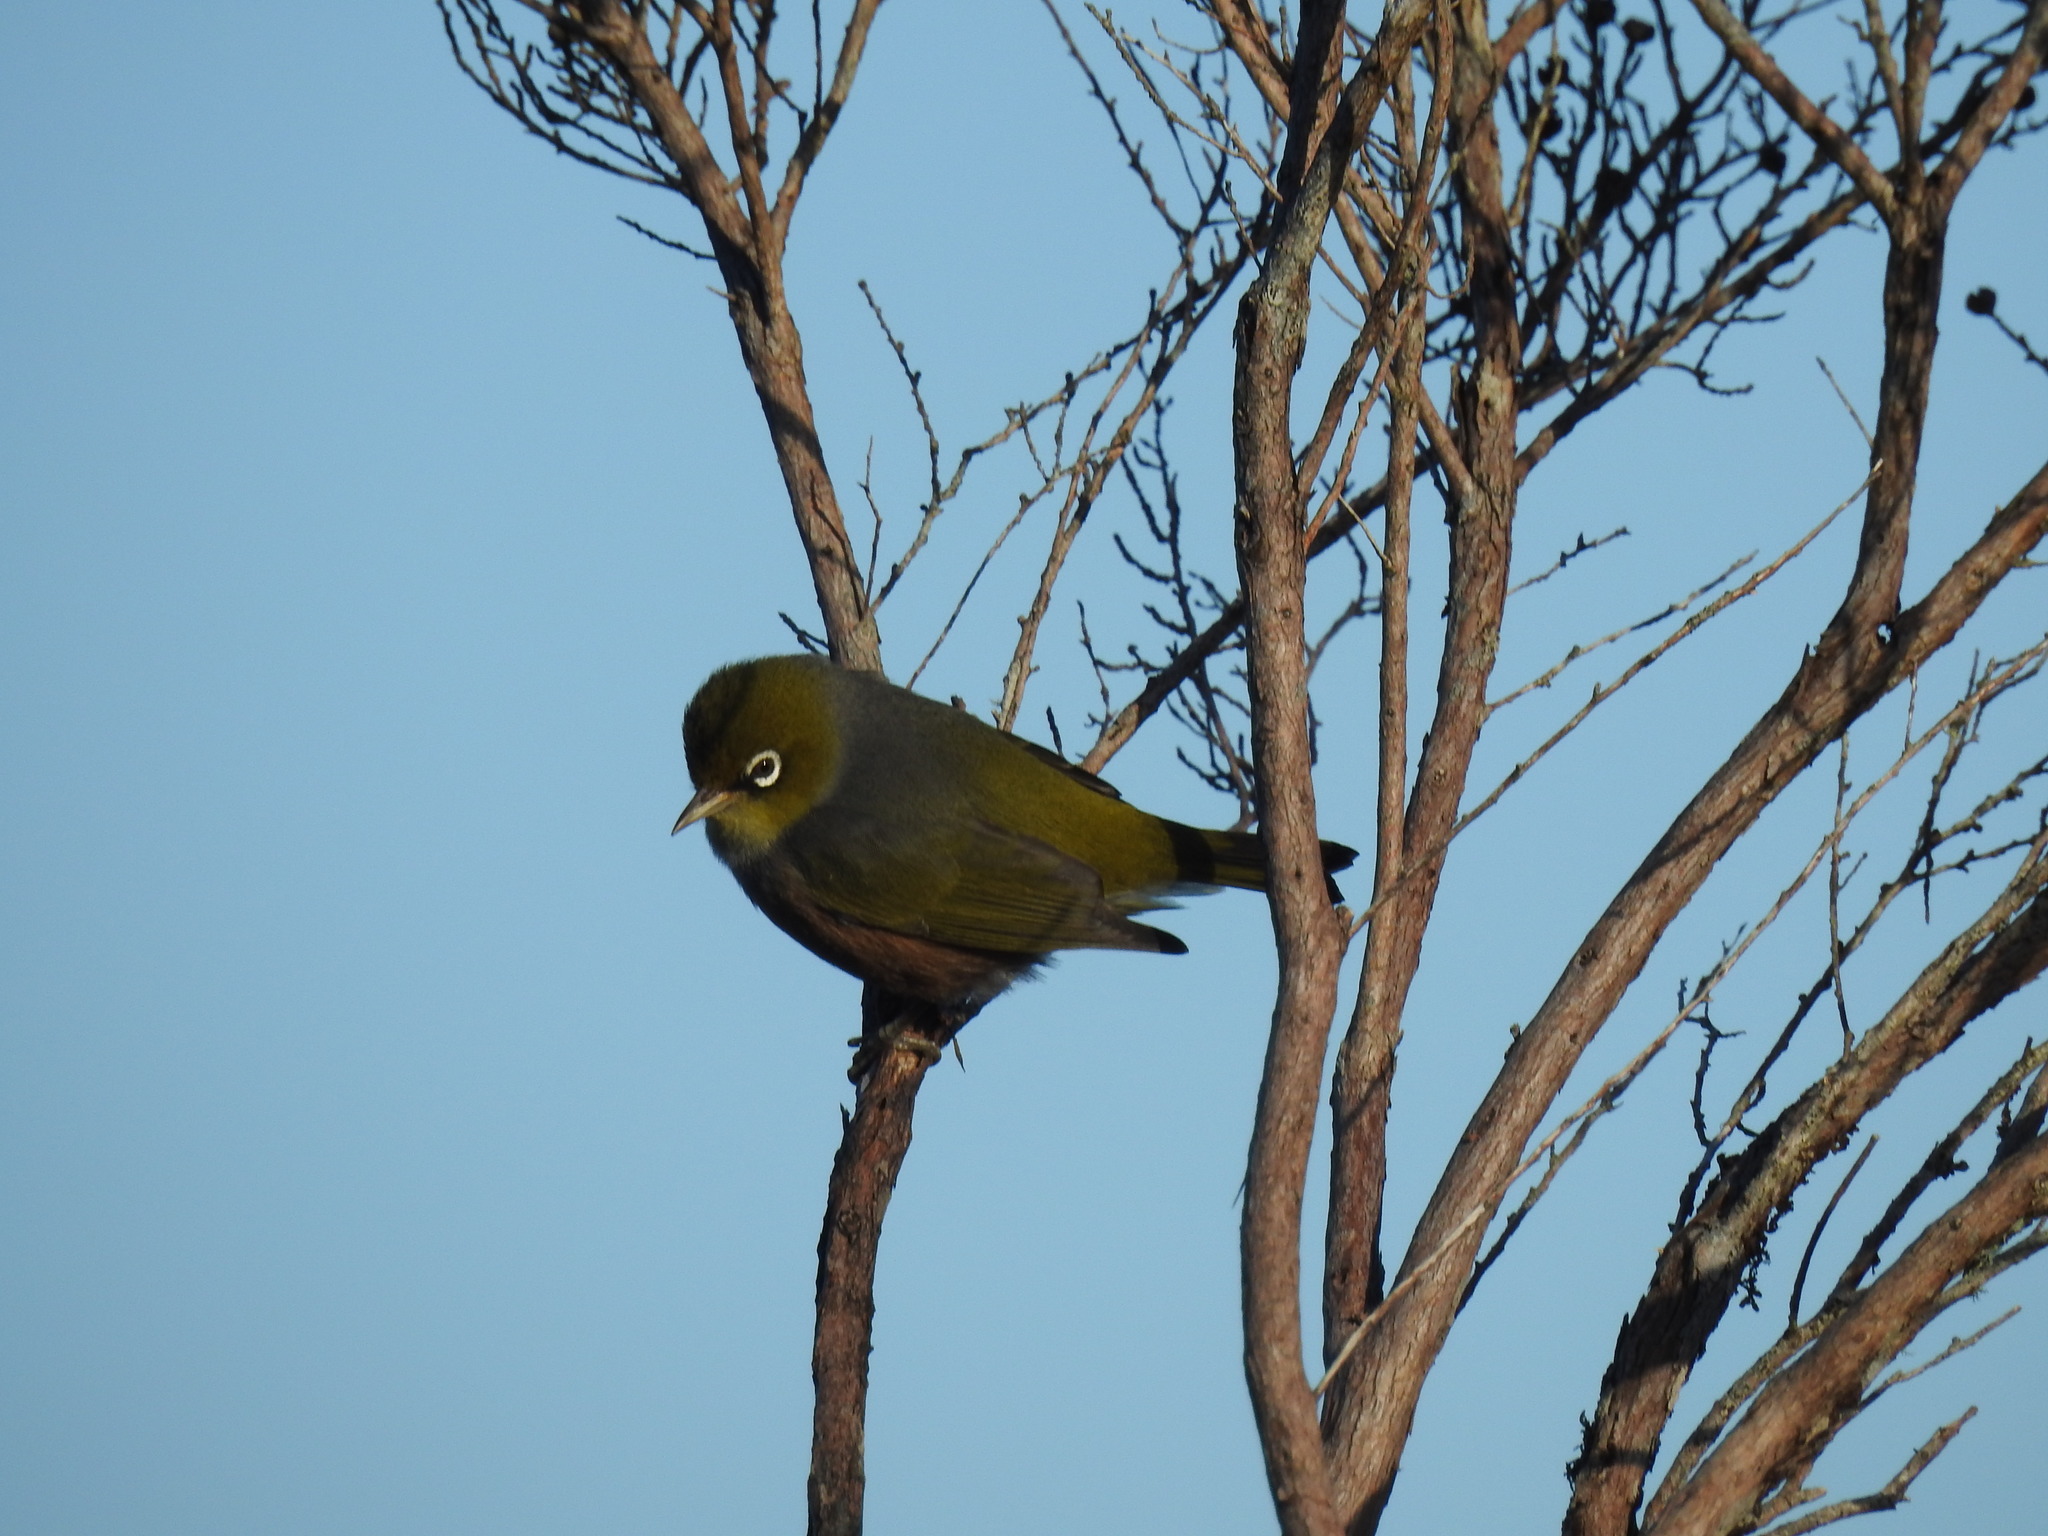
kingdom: Animalia
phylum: Chordata
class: Aves
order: Passeriformes
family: Zosteropidae
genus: Zosterops
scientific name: Zosterops lateralis
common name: Silvereye
